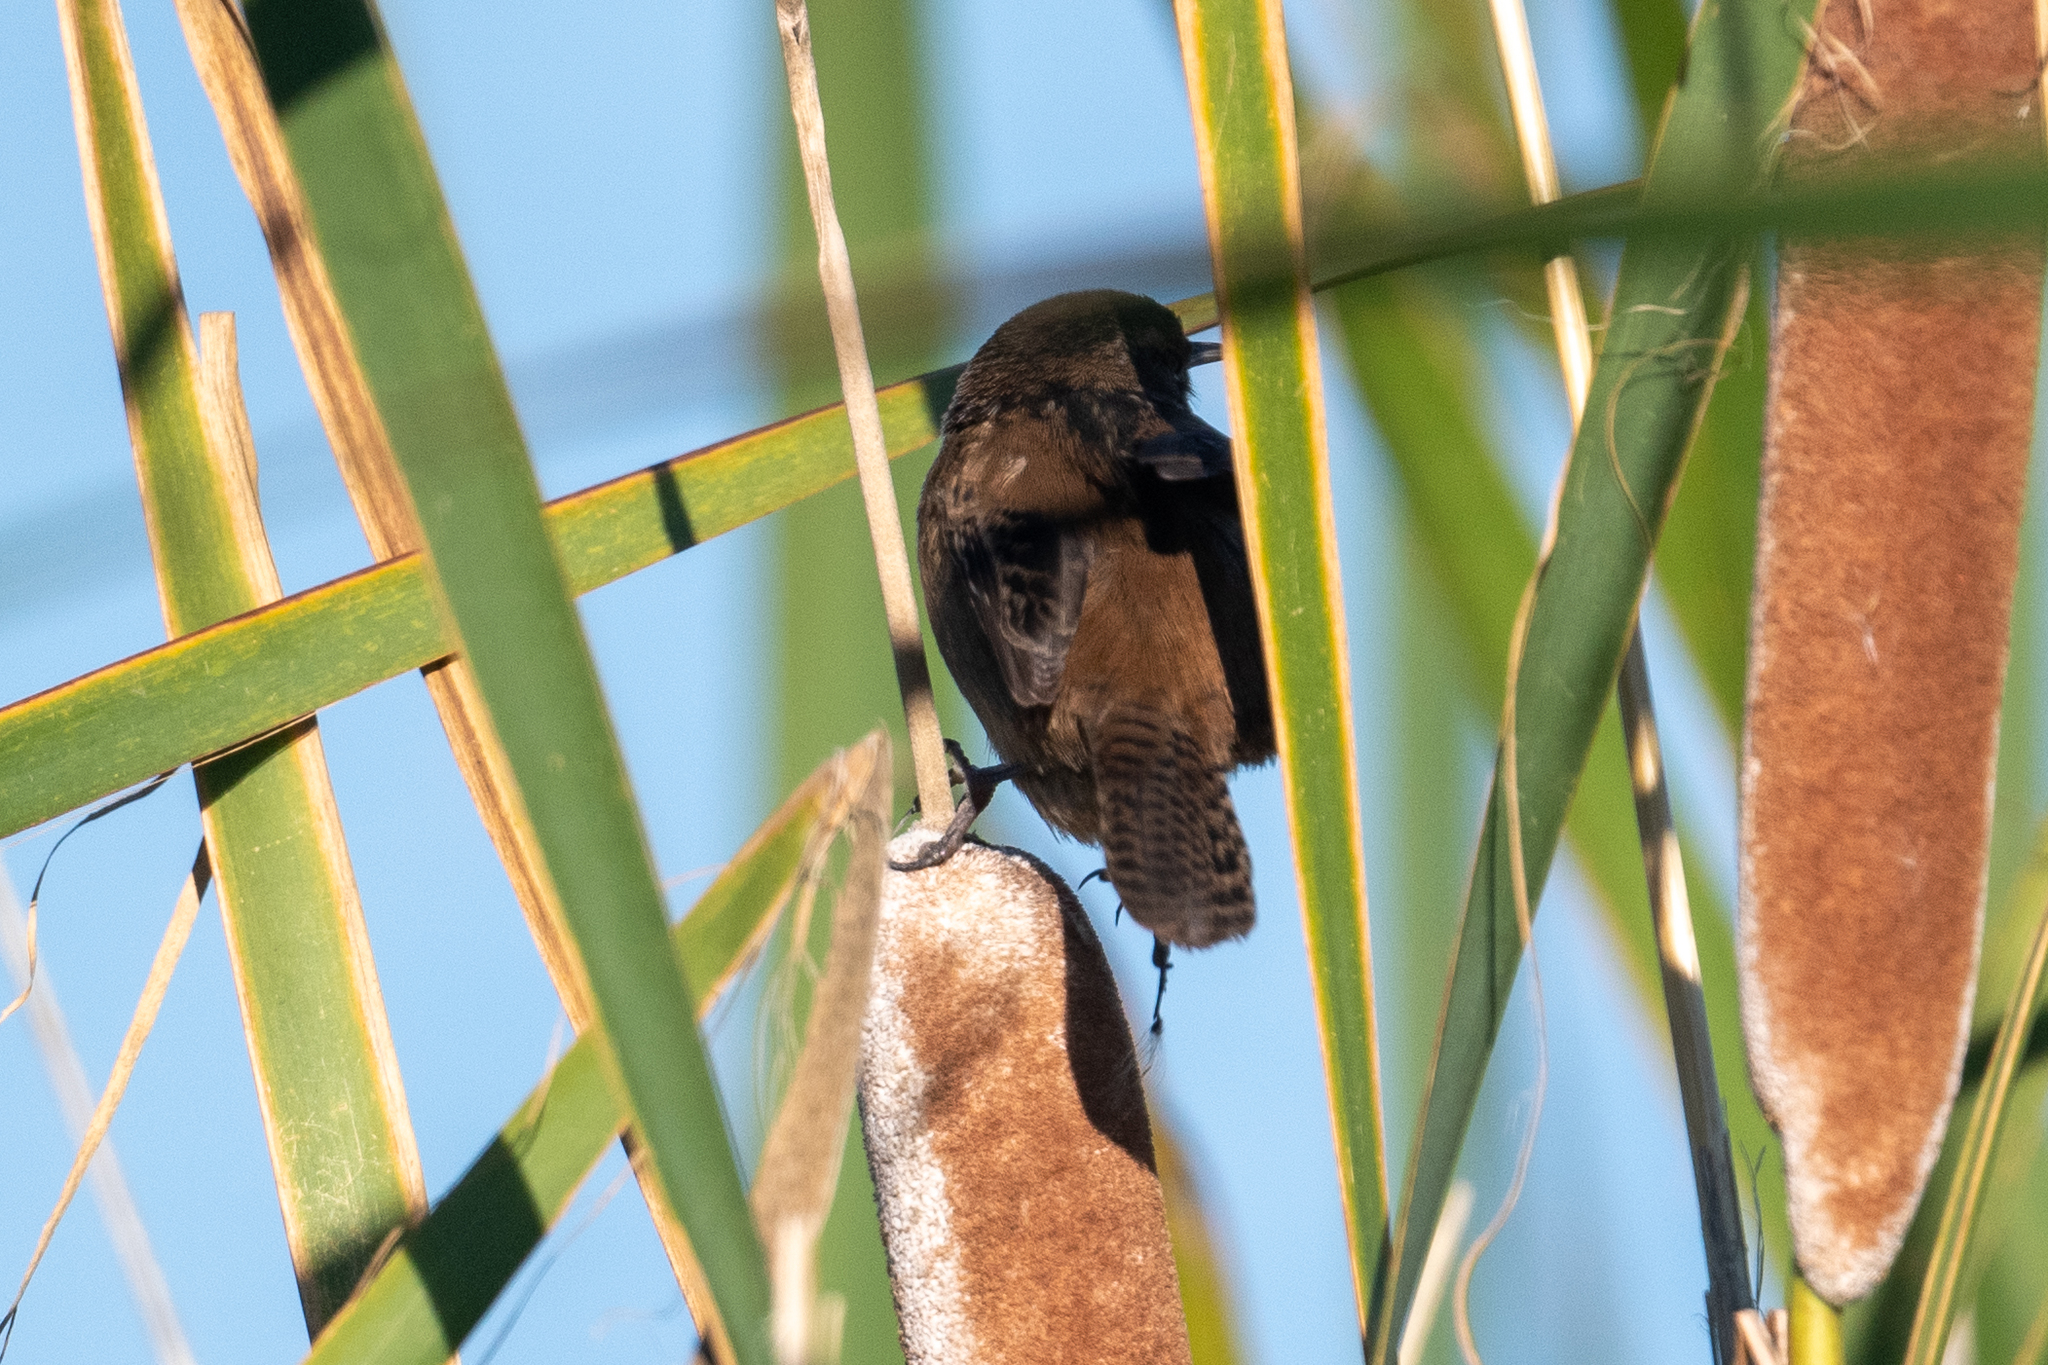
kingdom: Animalia
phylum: Chordata
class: Aves
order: Passeriformes
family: Troglodytidae
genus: Cistothorus
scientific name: Cistothorus palustris
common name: Marsh wren
